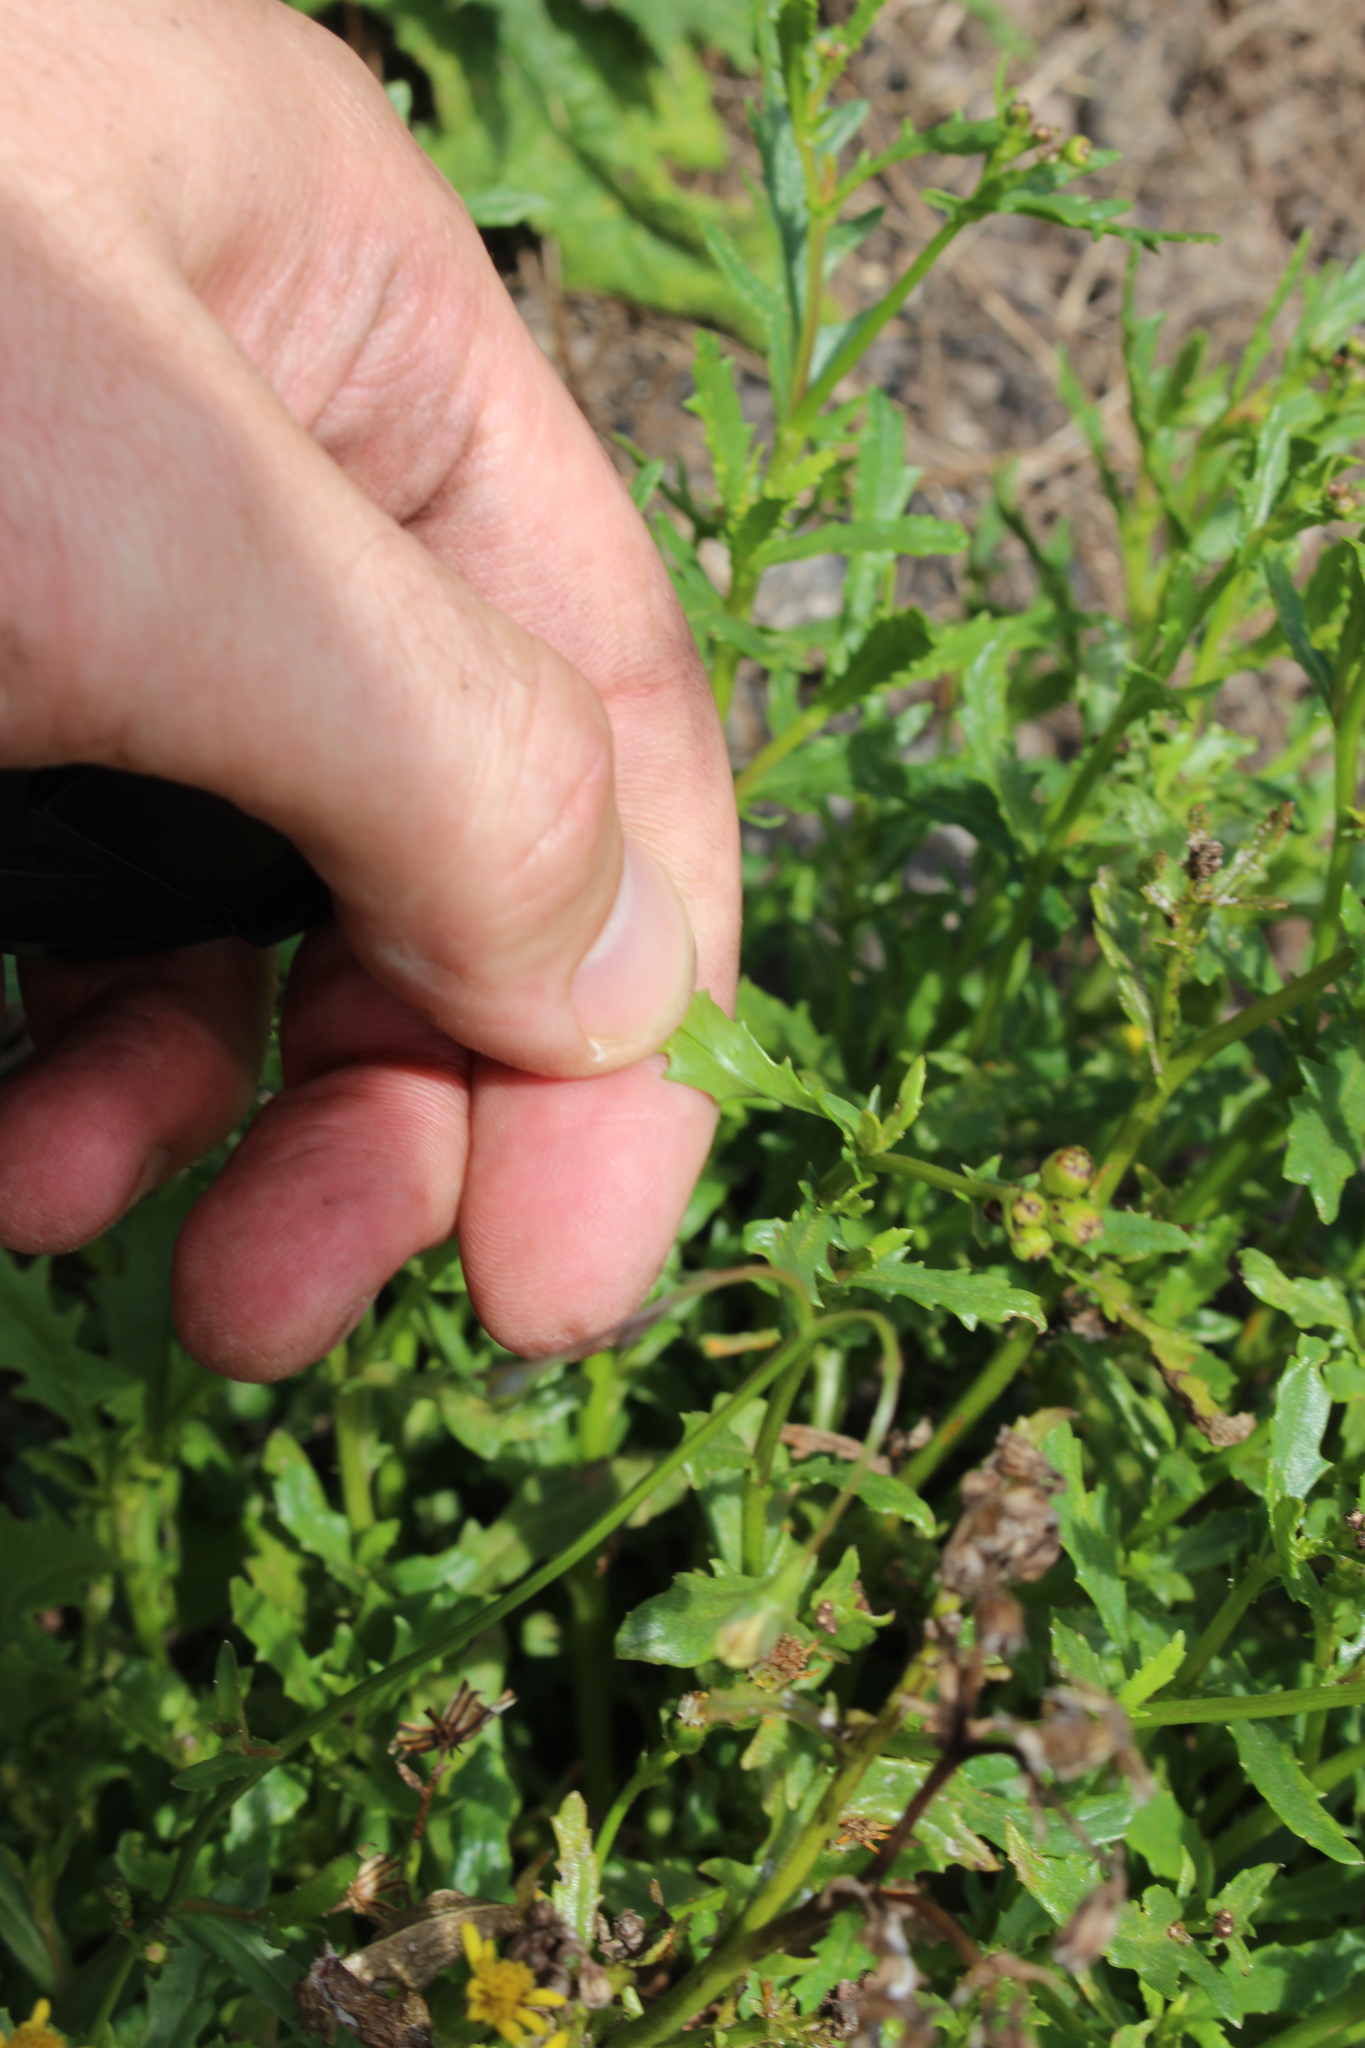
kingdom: Plantae
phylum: Tracheophyta
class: Magnoliopsida
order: Asterales
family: Asteraceae
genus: Senecio
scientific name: Senecio matatini
